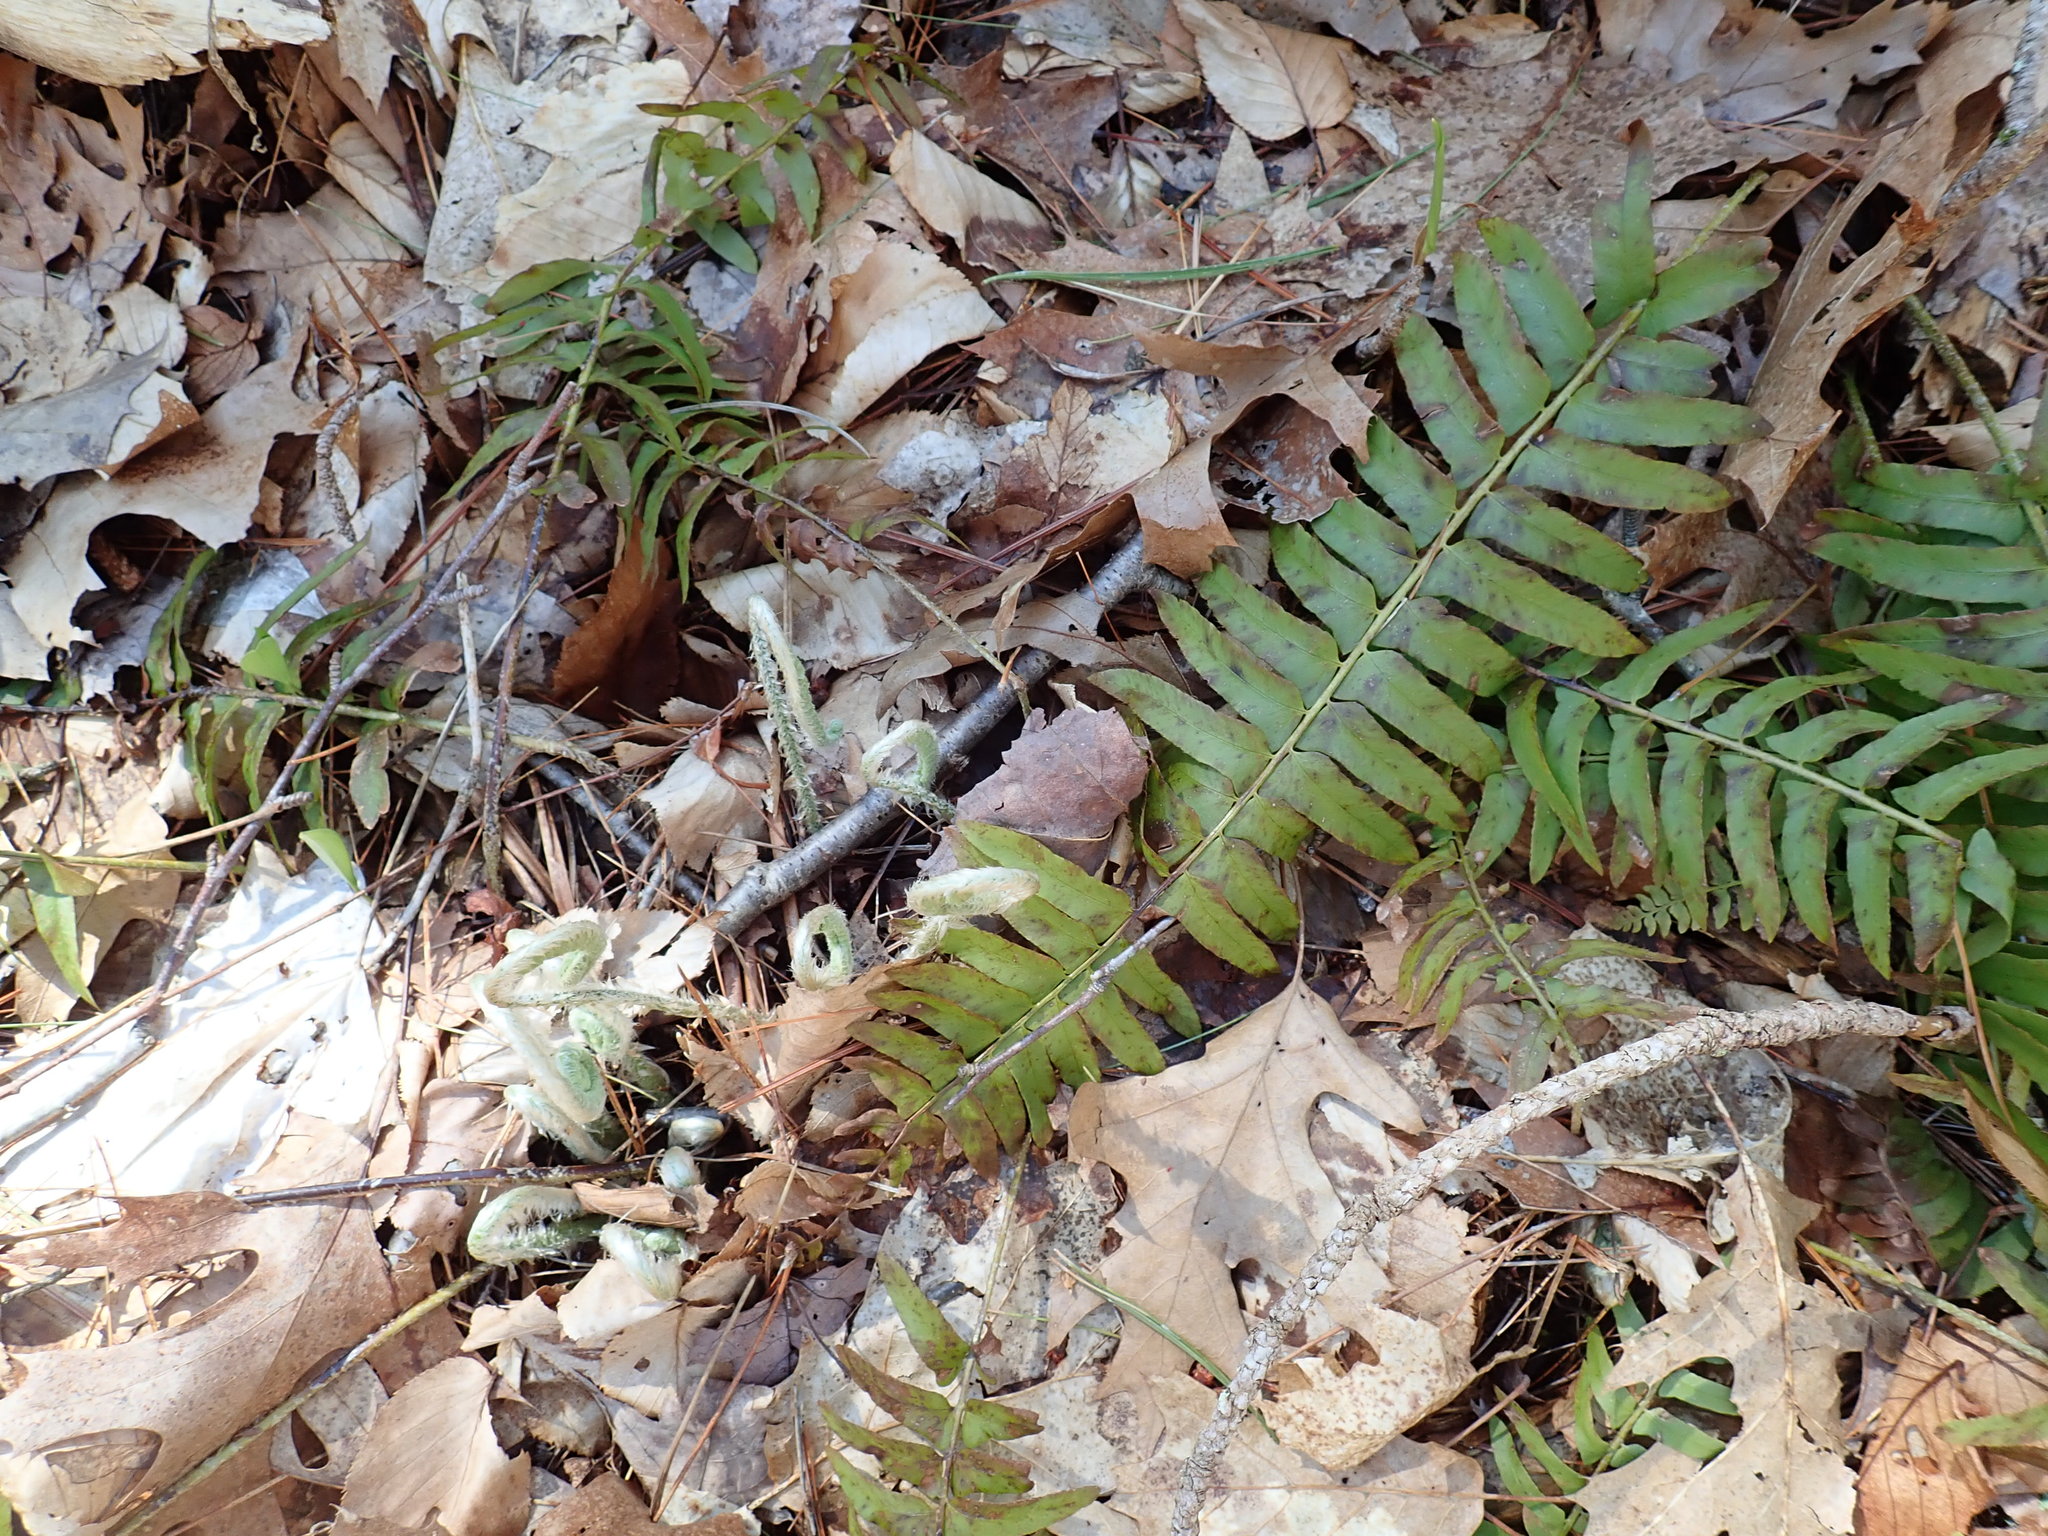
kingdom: Plantae
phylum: Tracheophyta
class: Polypodiopsida
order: Polypodiales
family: Dryopteridaceae
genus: Polystichum
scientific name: Polystichum acrostichoides
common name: Christmas fern
